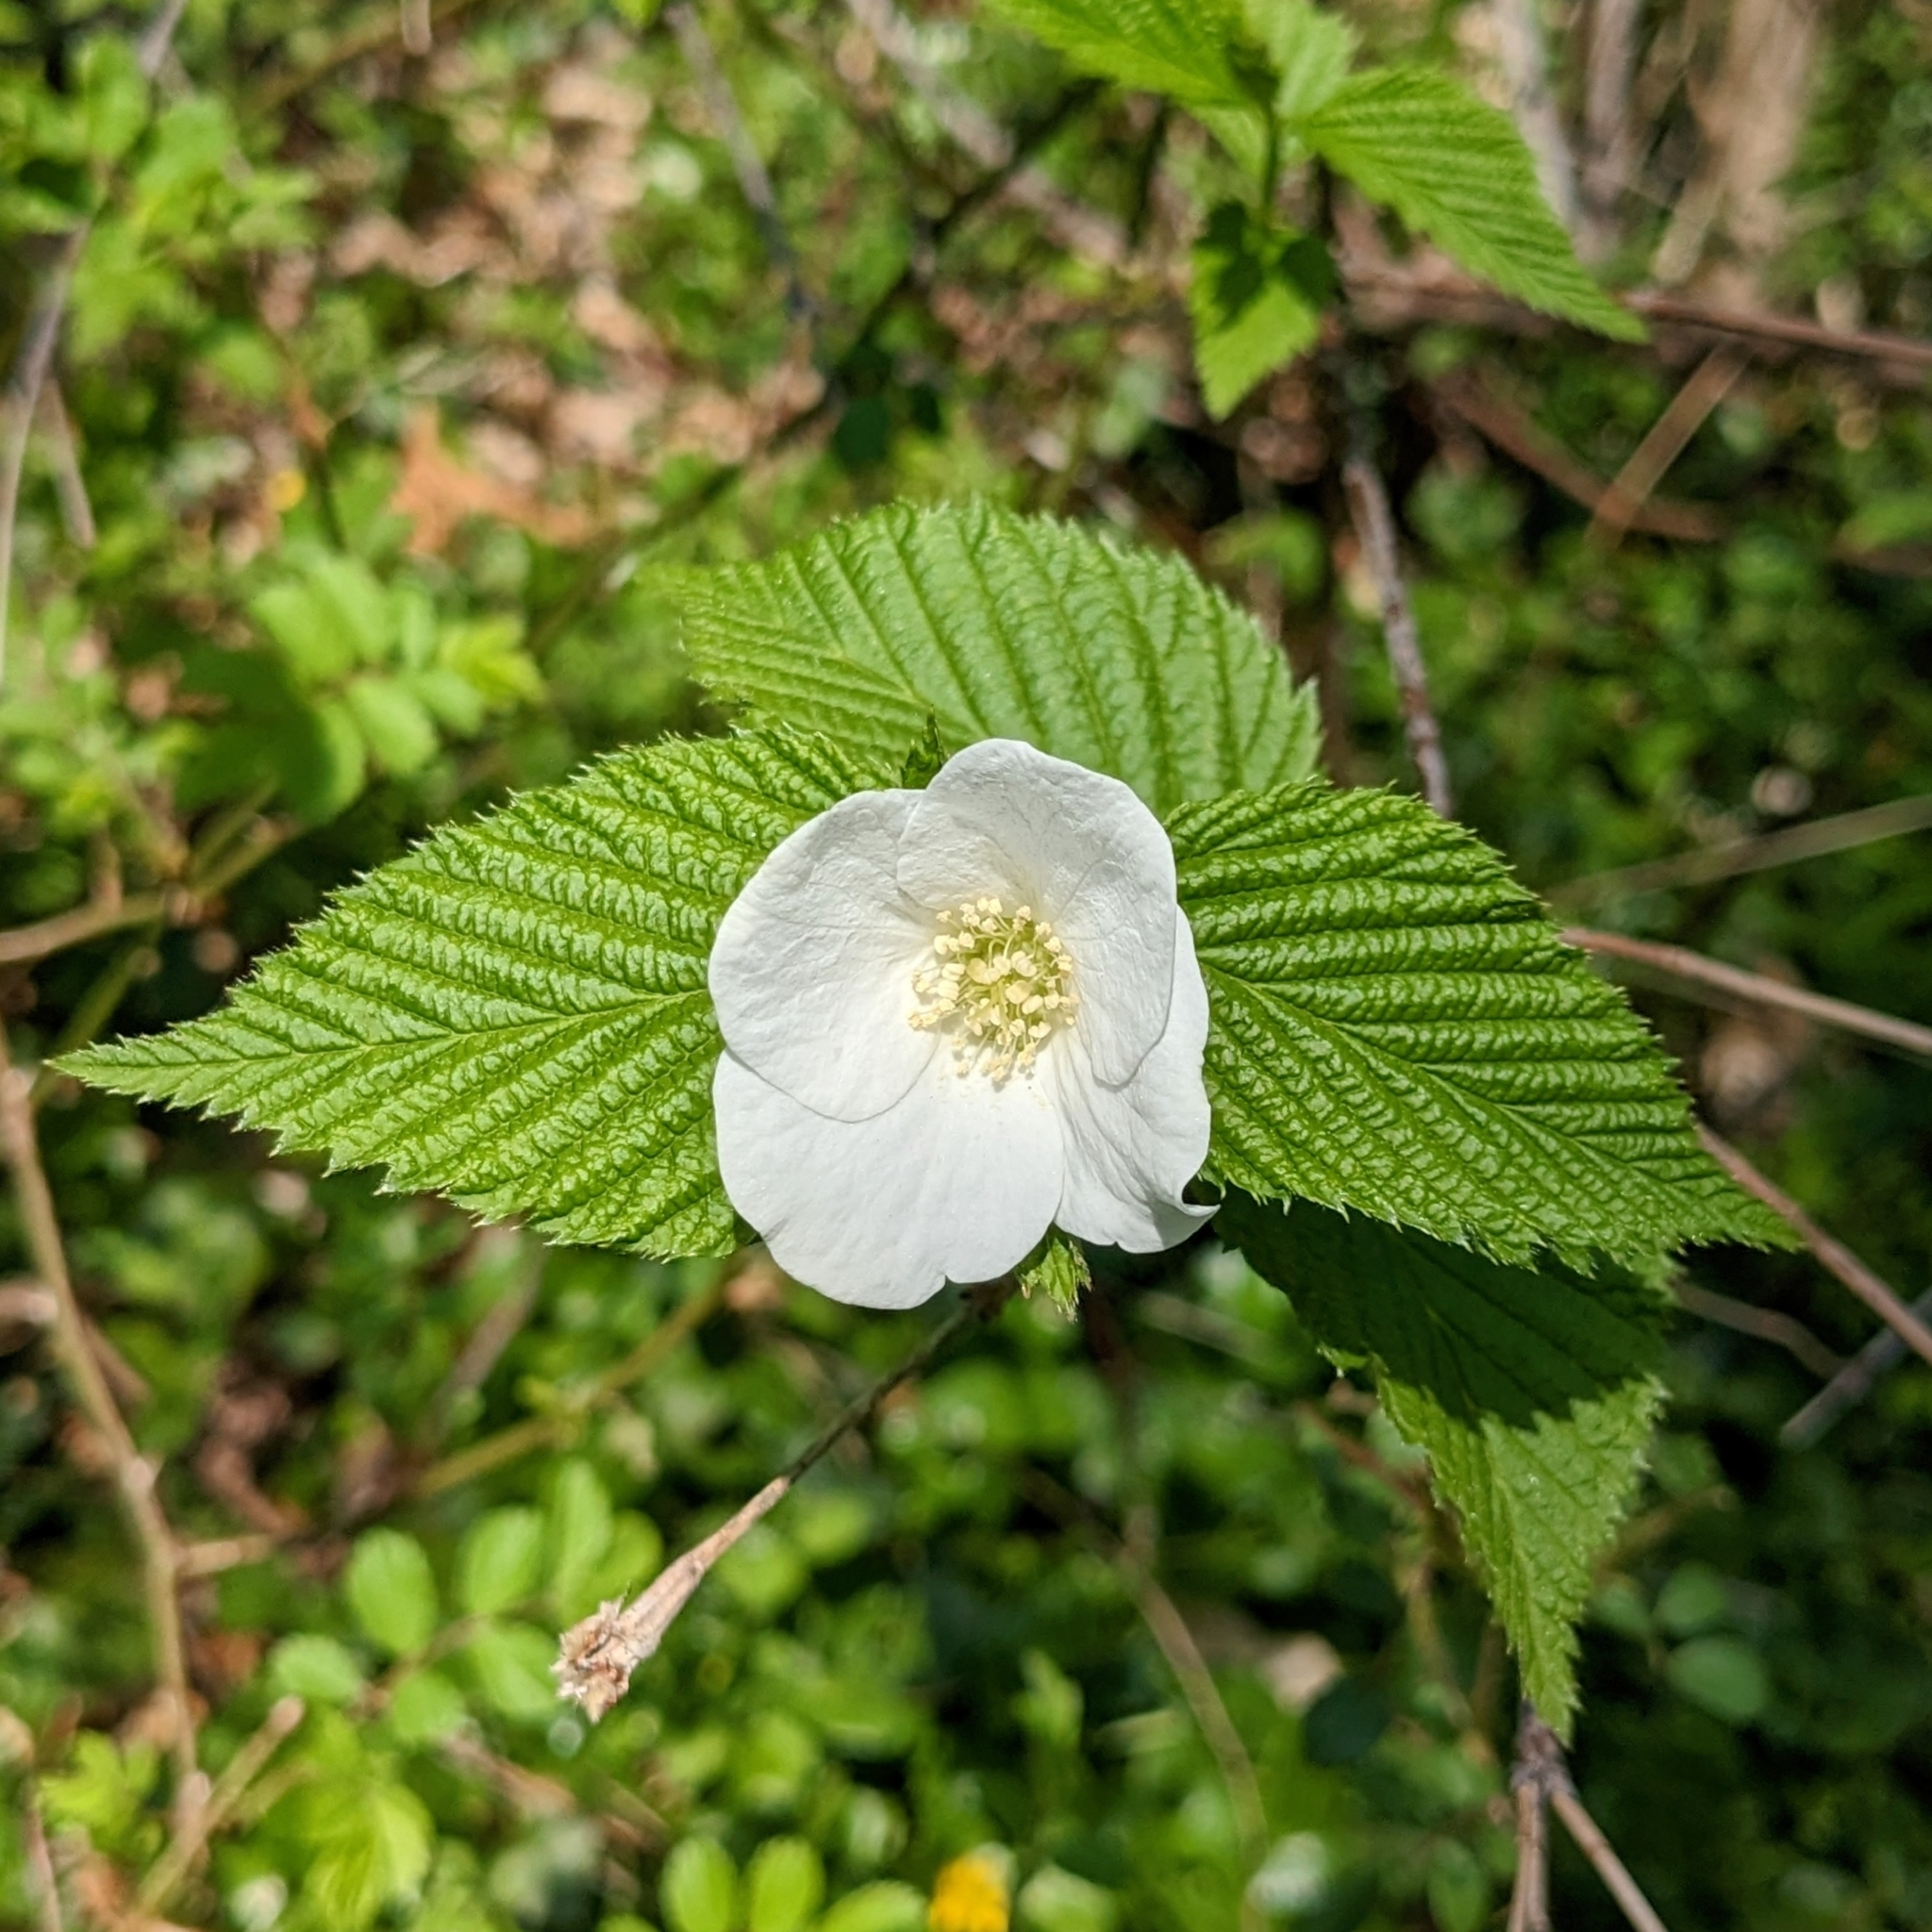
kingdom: Plantae
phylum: Tracheophyta
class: Magnoliopsida
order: Rosales
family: Rosaceae
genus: Rhodotypos
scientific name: Rhodotypos scandens
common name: Jetbead
